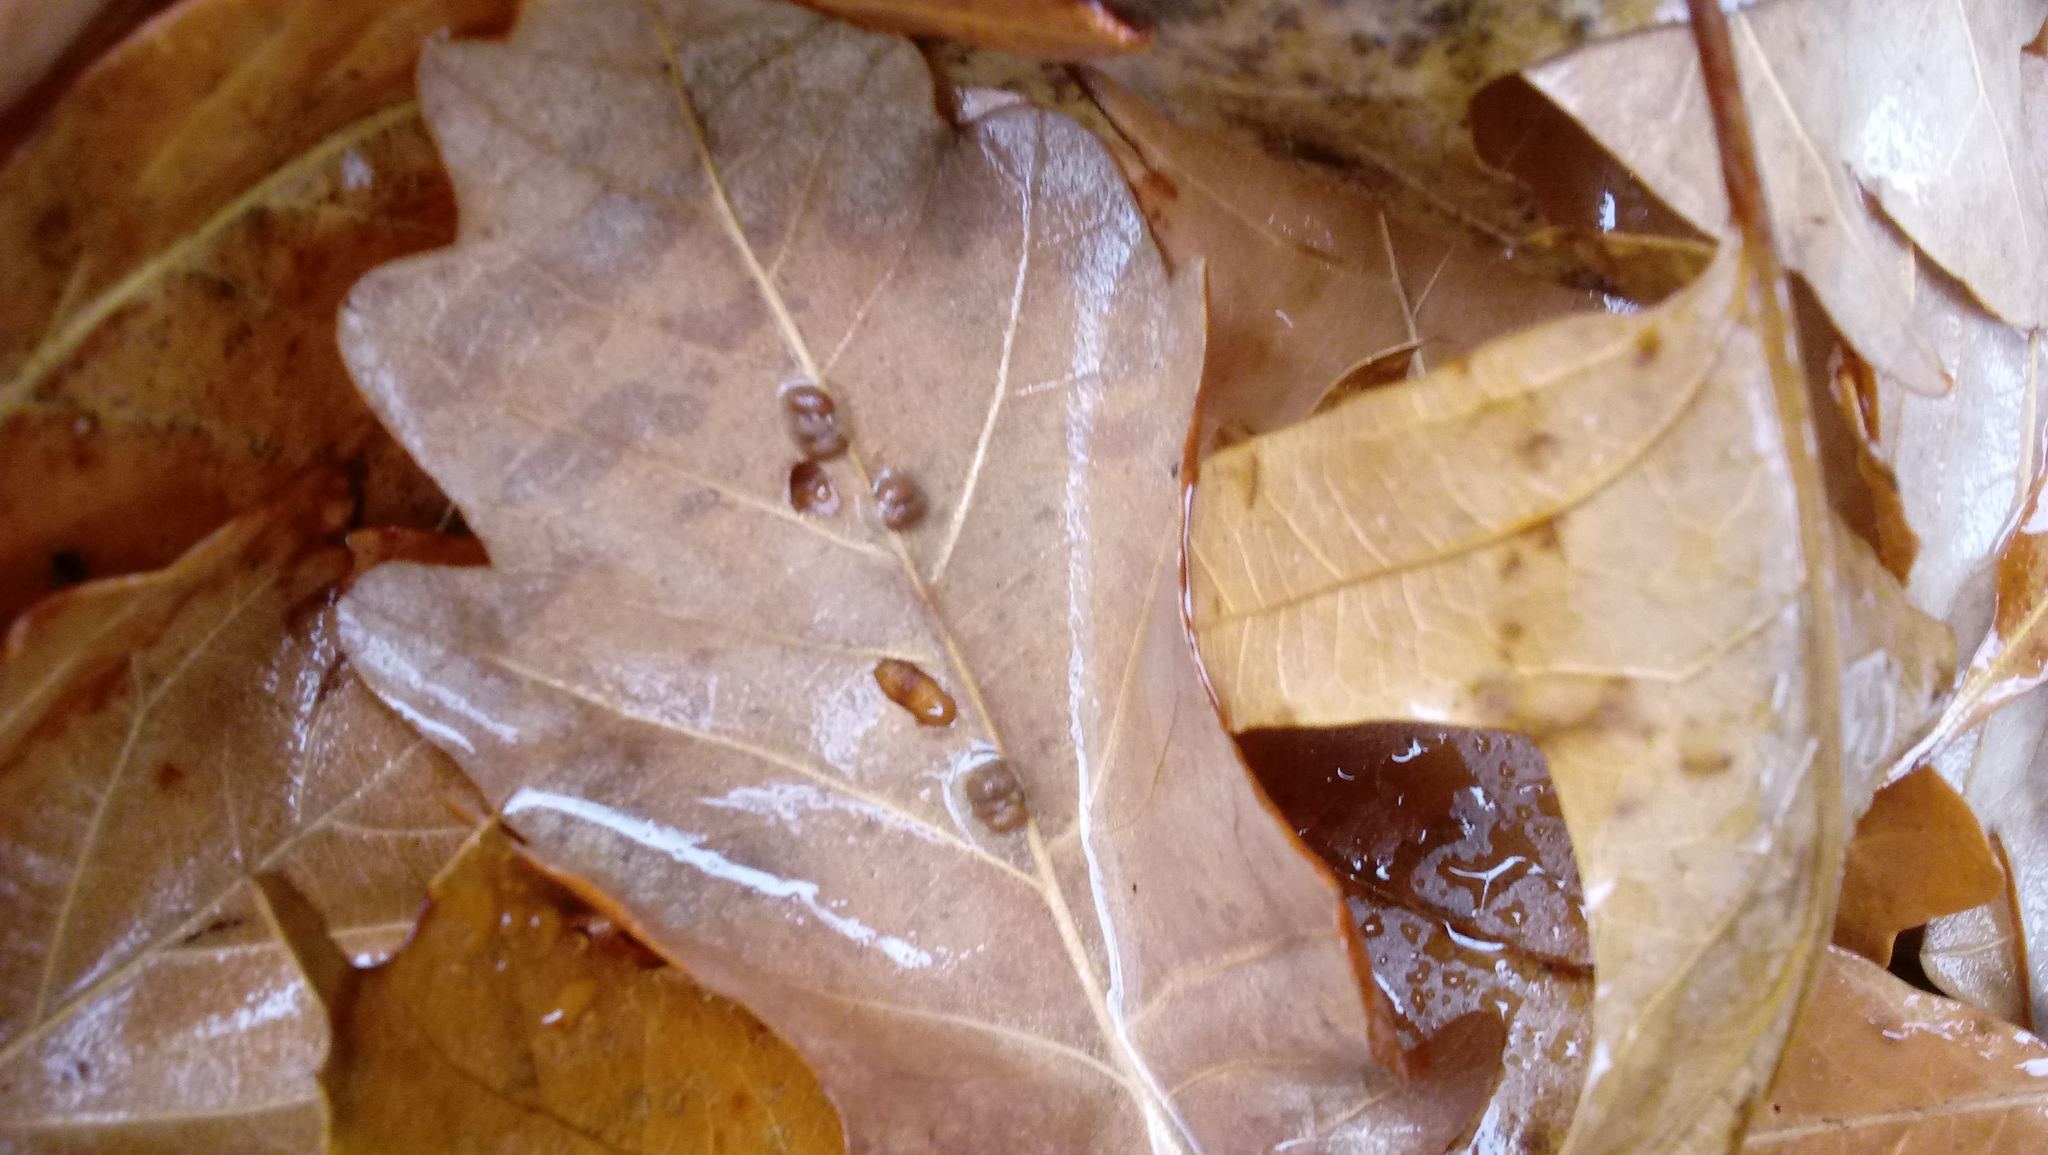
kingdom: Animalia
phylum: Arthropoda
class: Insecta
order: Hymenoptera
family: Cynipidae
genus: Andricus
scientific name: Andricus Druon ignotum
